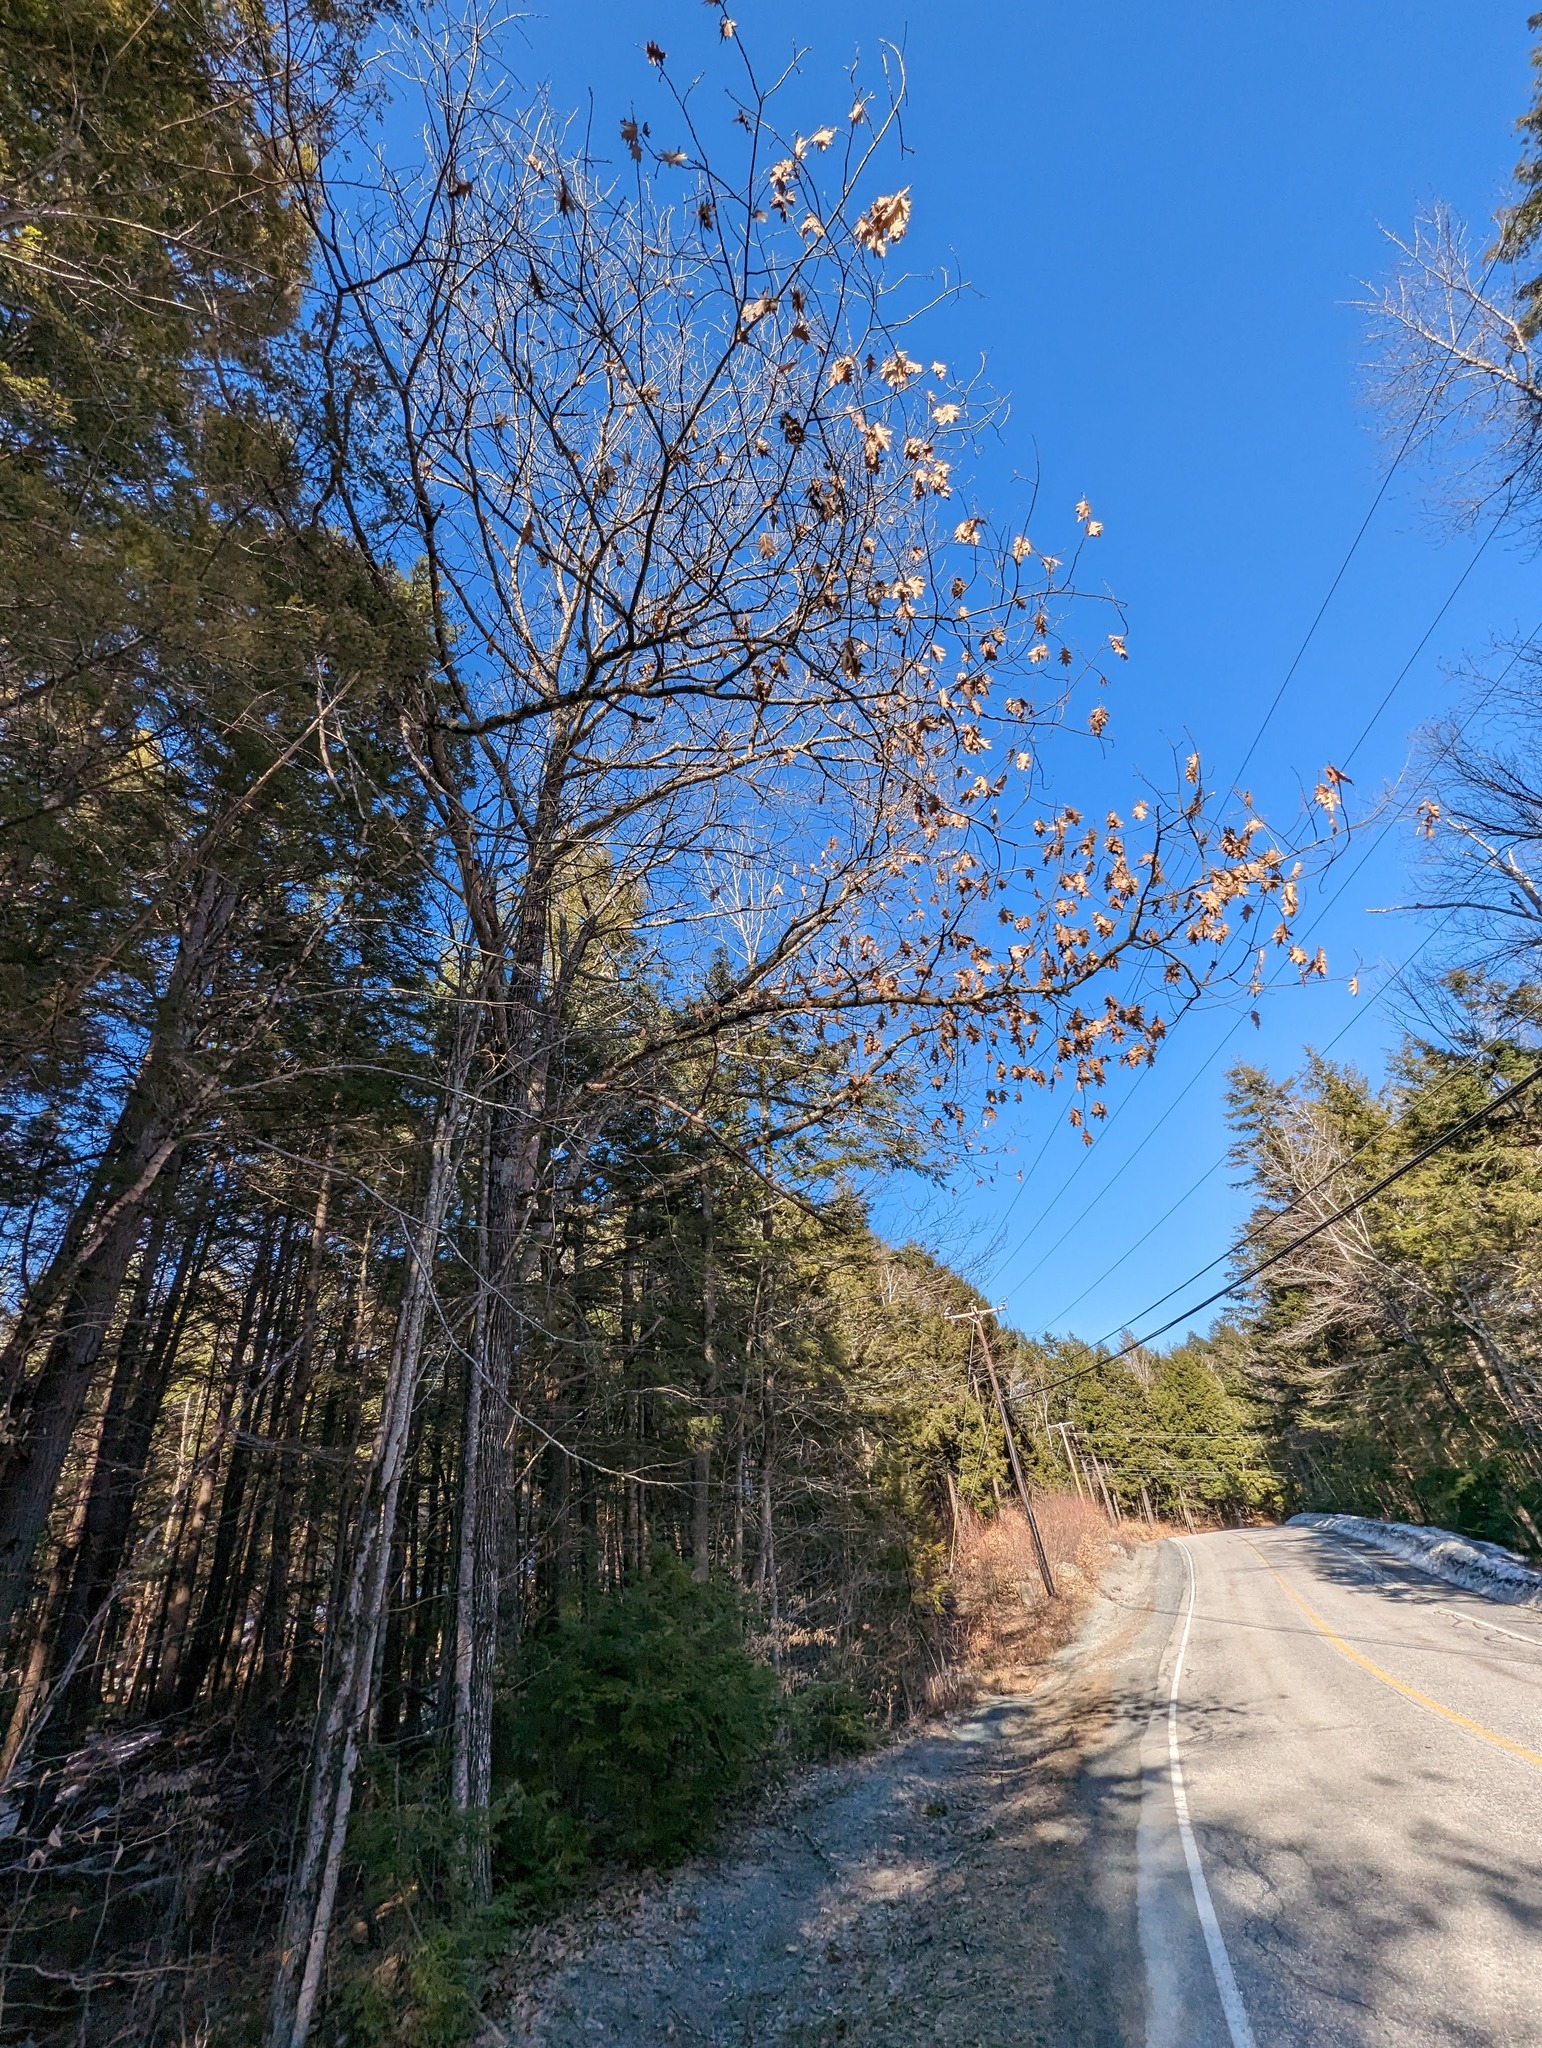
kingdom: Plantae
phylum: Tracheophyta
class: Magnoliopsida
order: Fagales
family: Fagaceae
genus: Quercus
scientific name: Quercus rubra
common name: Red oak
